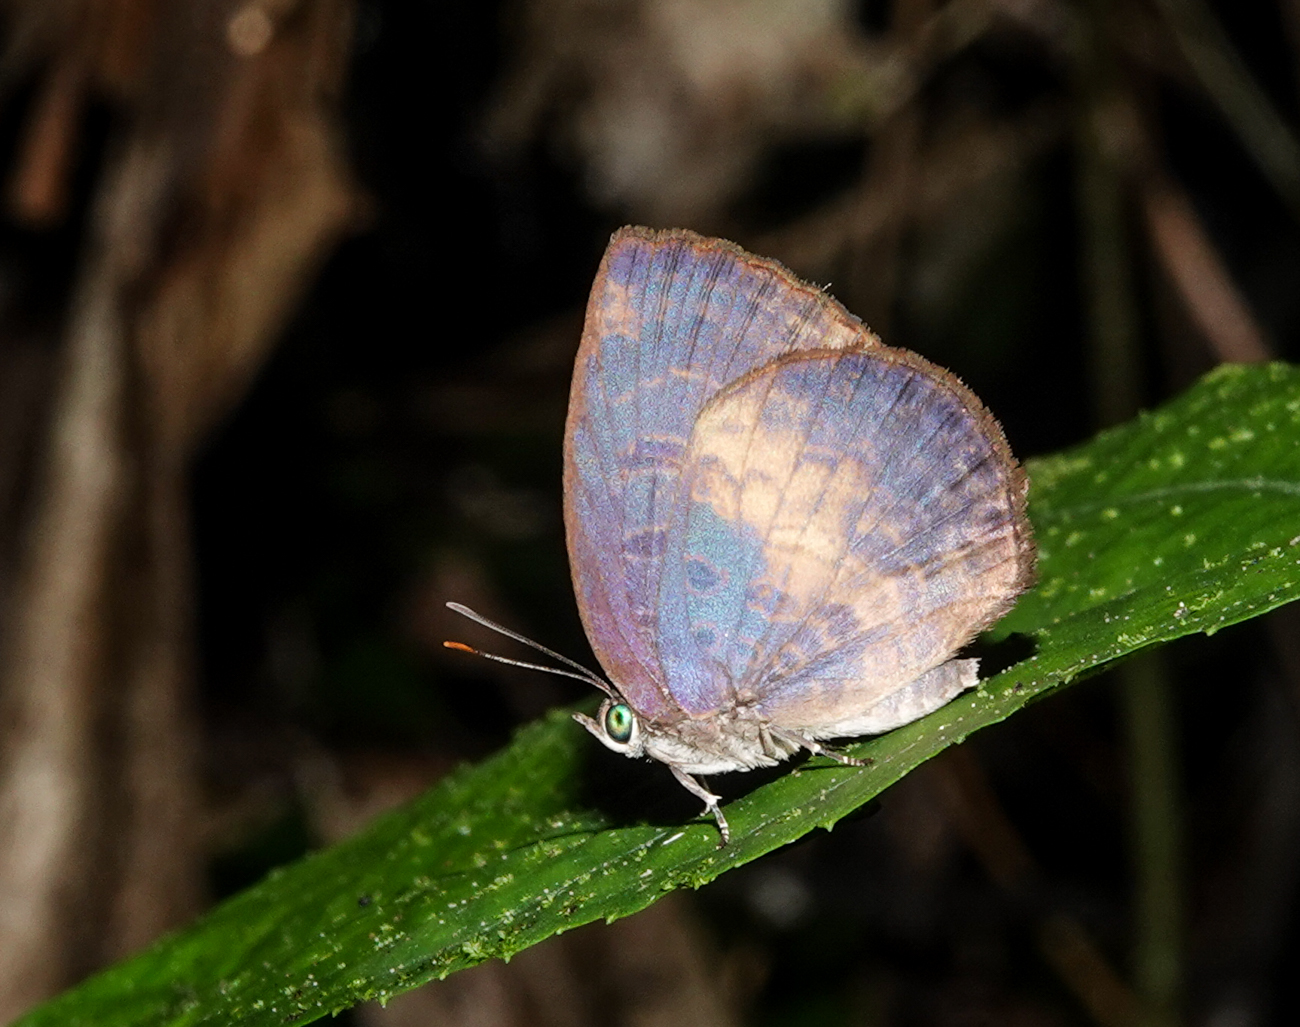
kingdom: Animalia
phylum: Arthropoda
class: Insecta
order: Lepidoptera
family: Lycaenidae
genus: Arhopala
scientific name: Arhopala perimuta
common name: Yellowdisc oakblue
